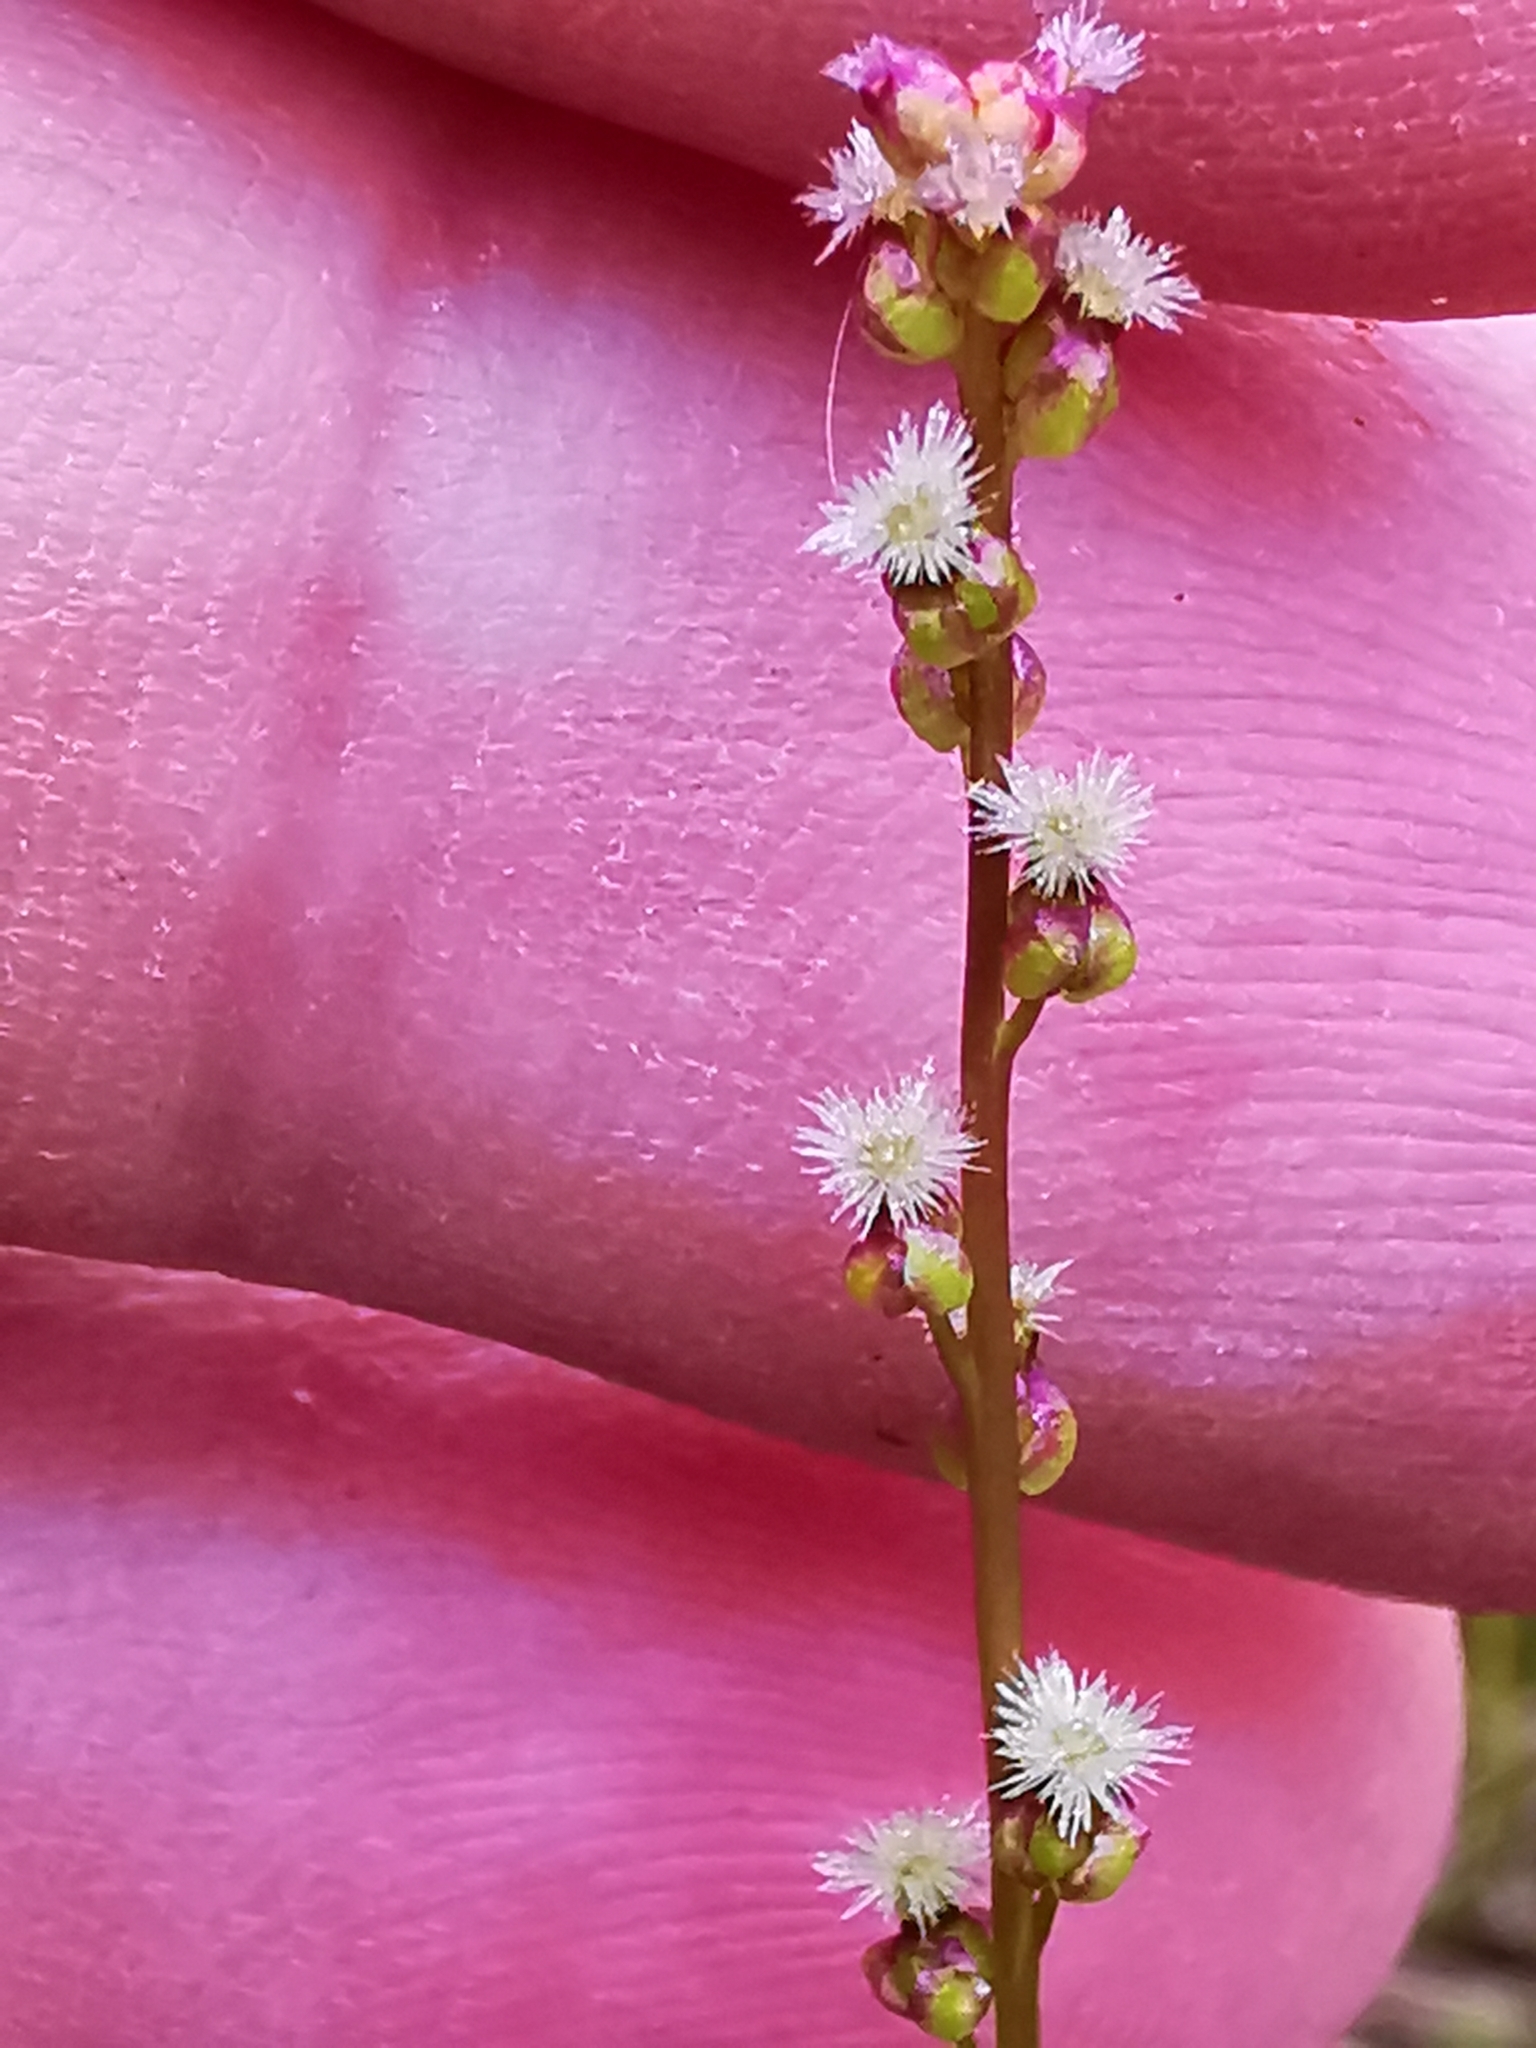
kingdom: Plantae
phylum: Tracheophyta
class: Liliopsida
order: Alismatales
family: Juncaginaceae
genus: Triglochin
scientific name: Triglochin palustris
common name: Marsh arrowgrass
